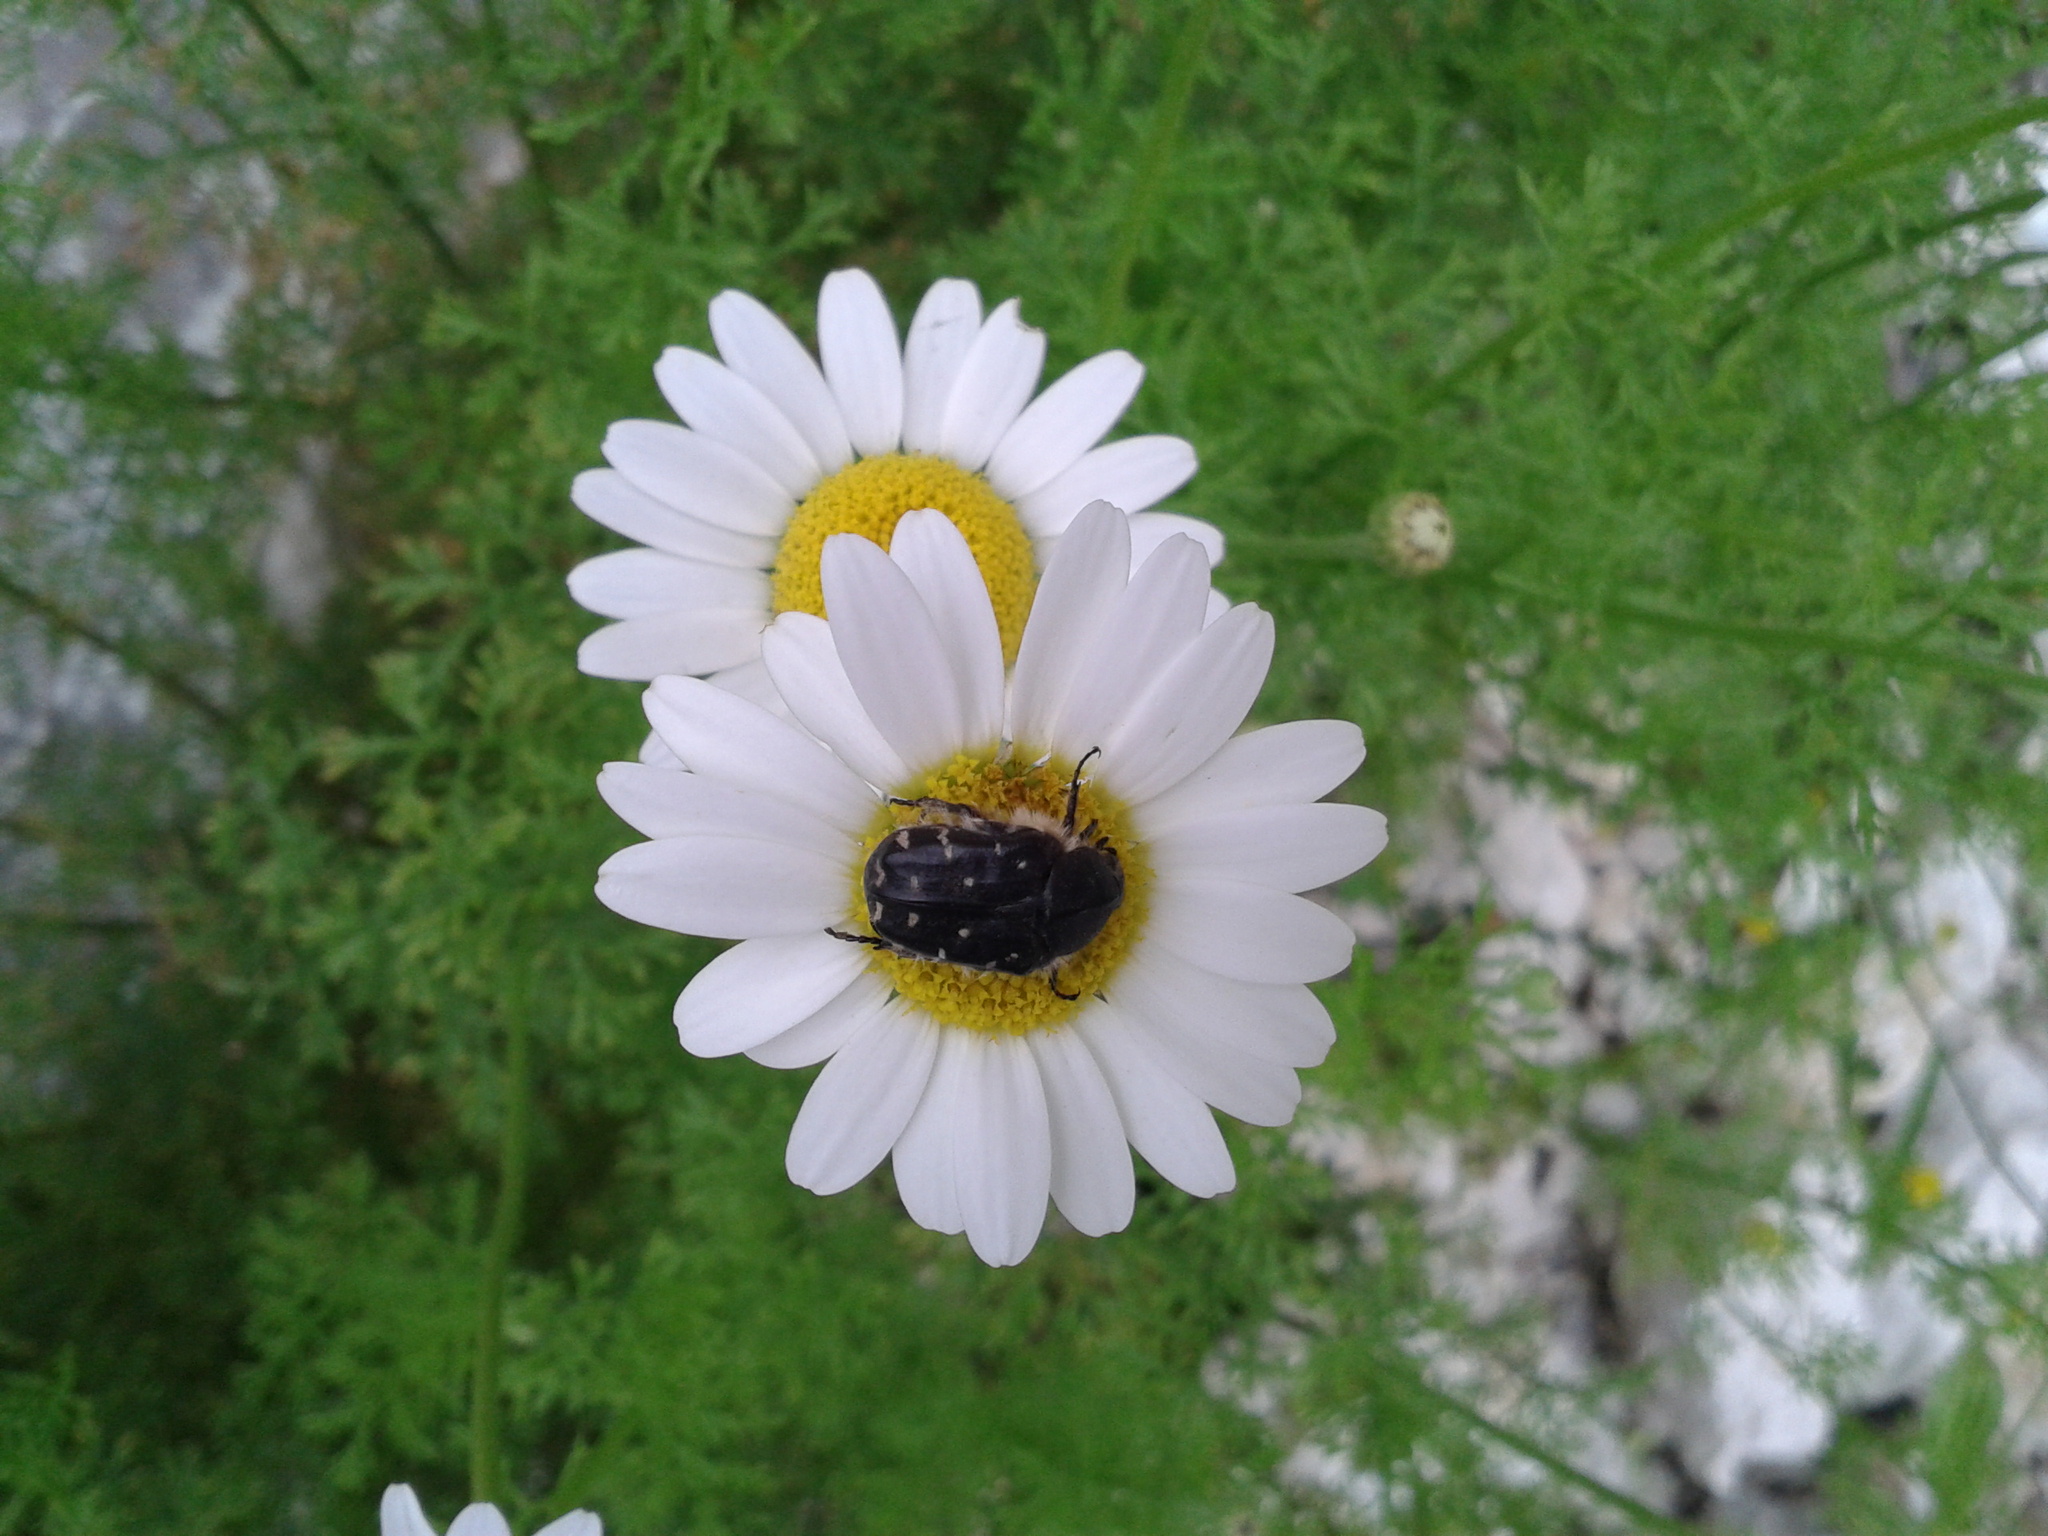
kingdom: Animalia
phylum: Arthropoda
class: Insecta
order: Coleoptera
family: Scarabaeidae
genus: Tropinota
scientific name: Tropinota hirta
